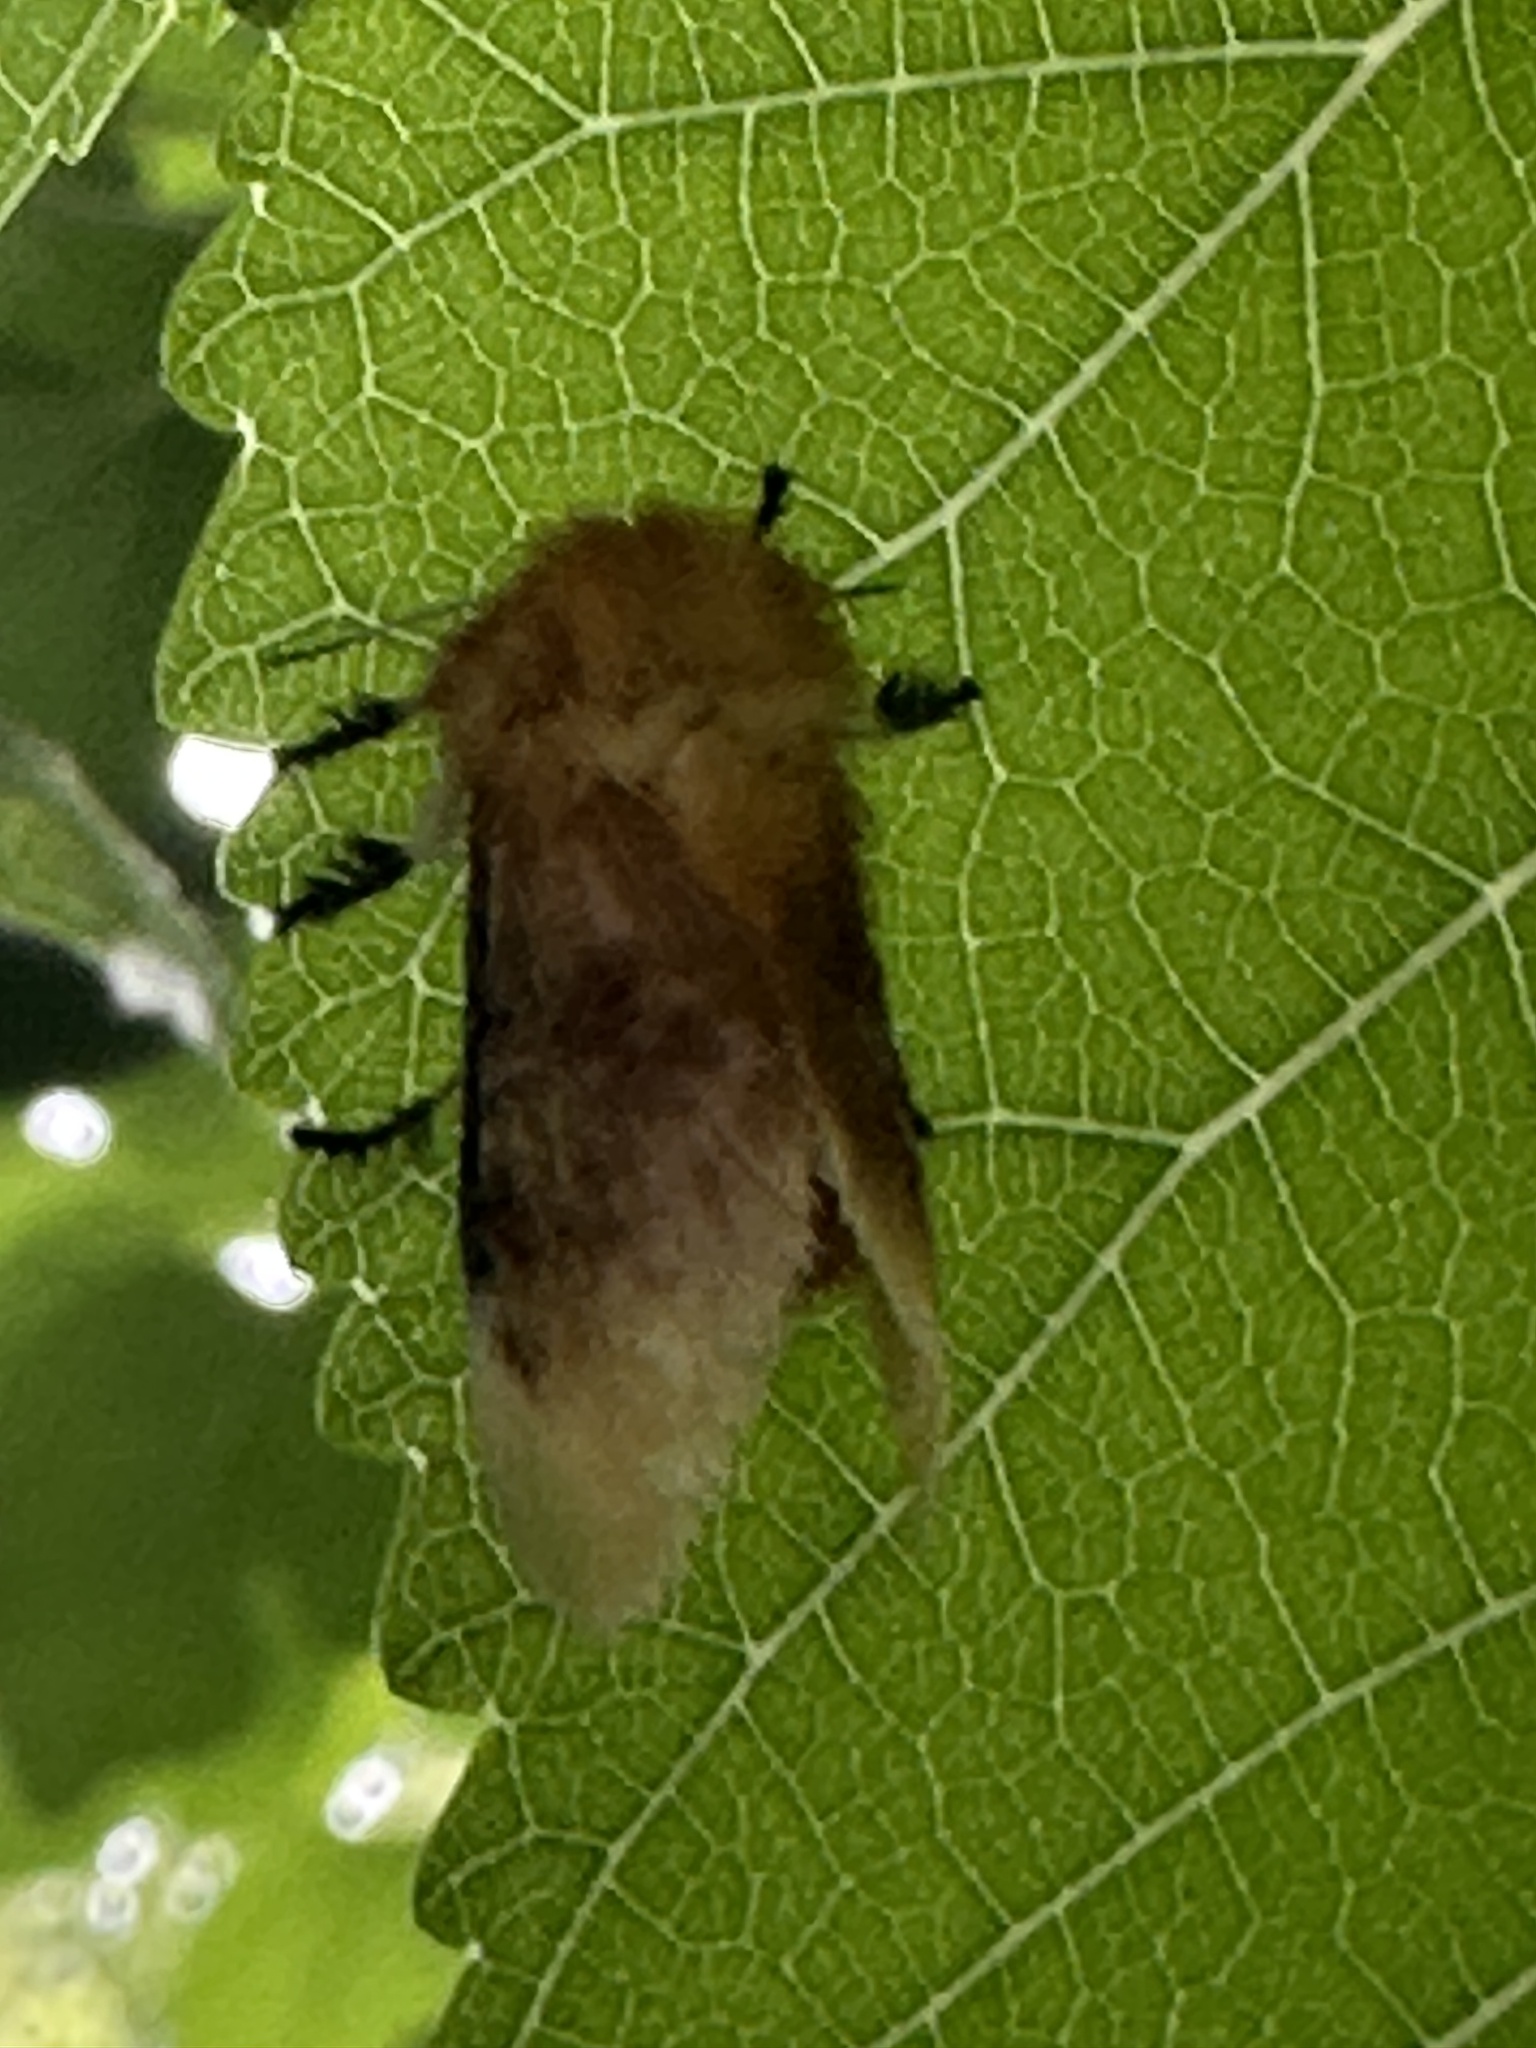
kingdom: Animalia
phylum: Arthropoda
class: Insecta
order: Lepidoptera
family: Megalopygidae
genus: Megalopyge
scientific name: Megalopyge opercularis
